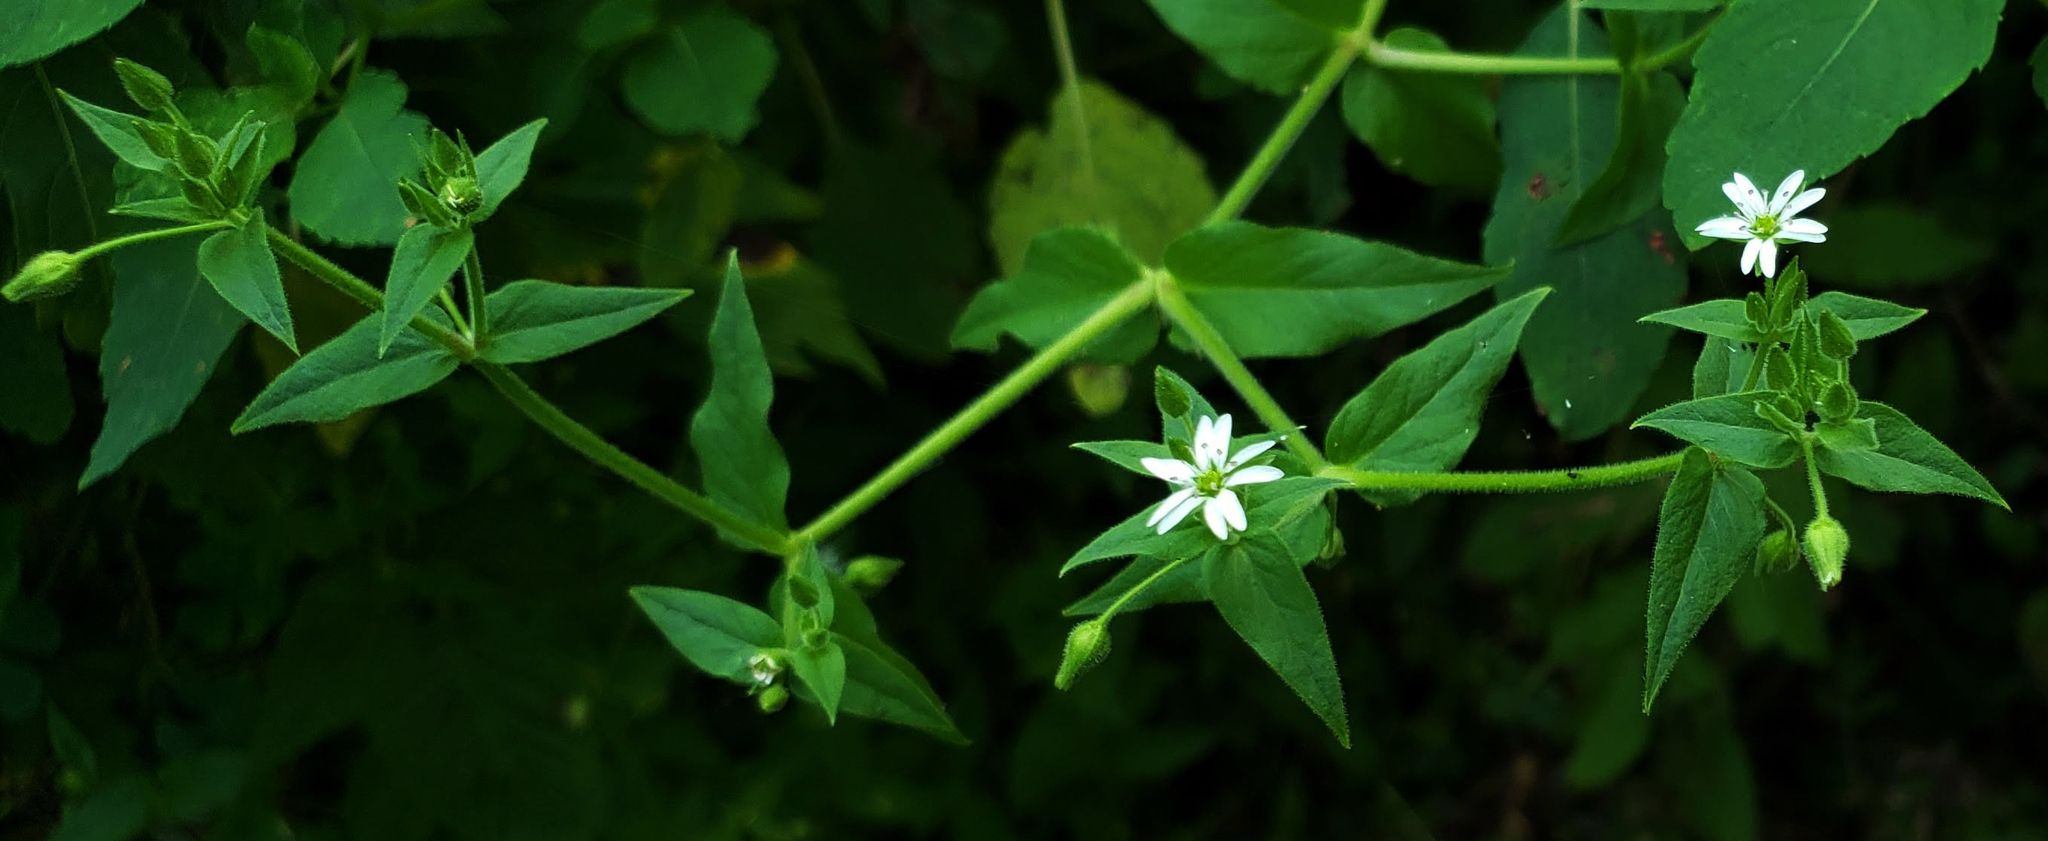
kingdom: Plantae
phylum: Tracheophyta
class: Magnoliopsida
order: Caryophyllales
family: Caryophyllaceae
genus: Stellaria
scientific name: Stellaria aquatica
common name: Water chickweed
